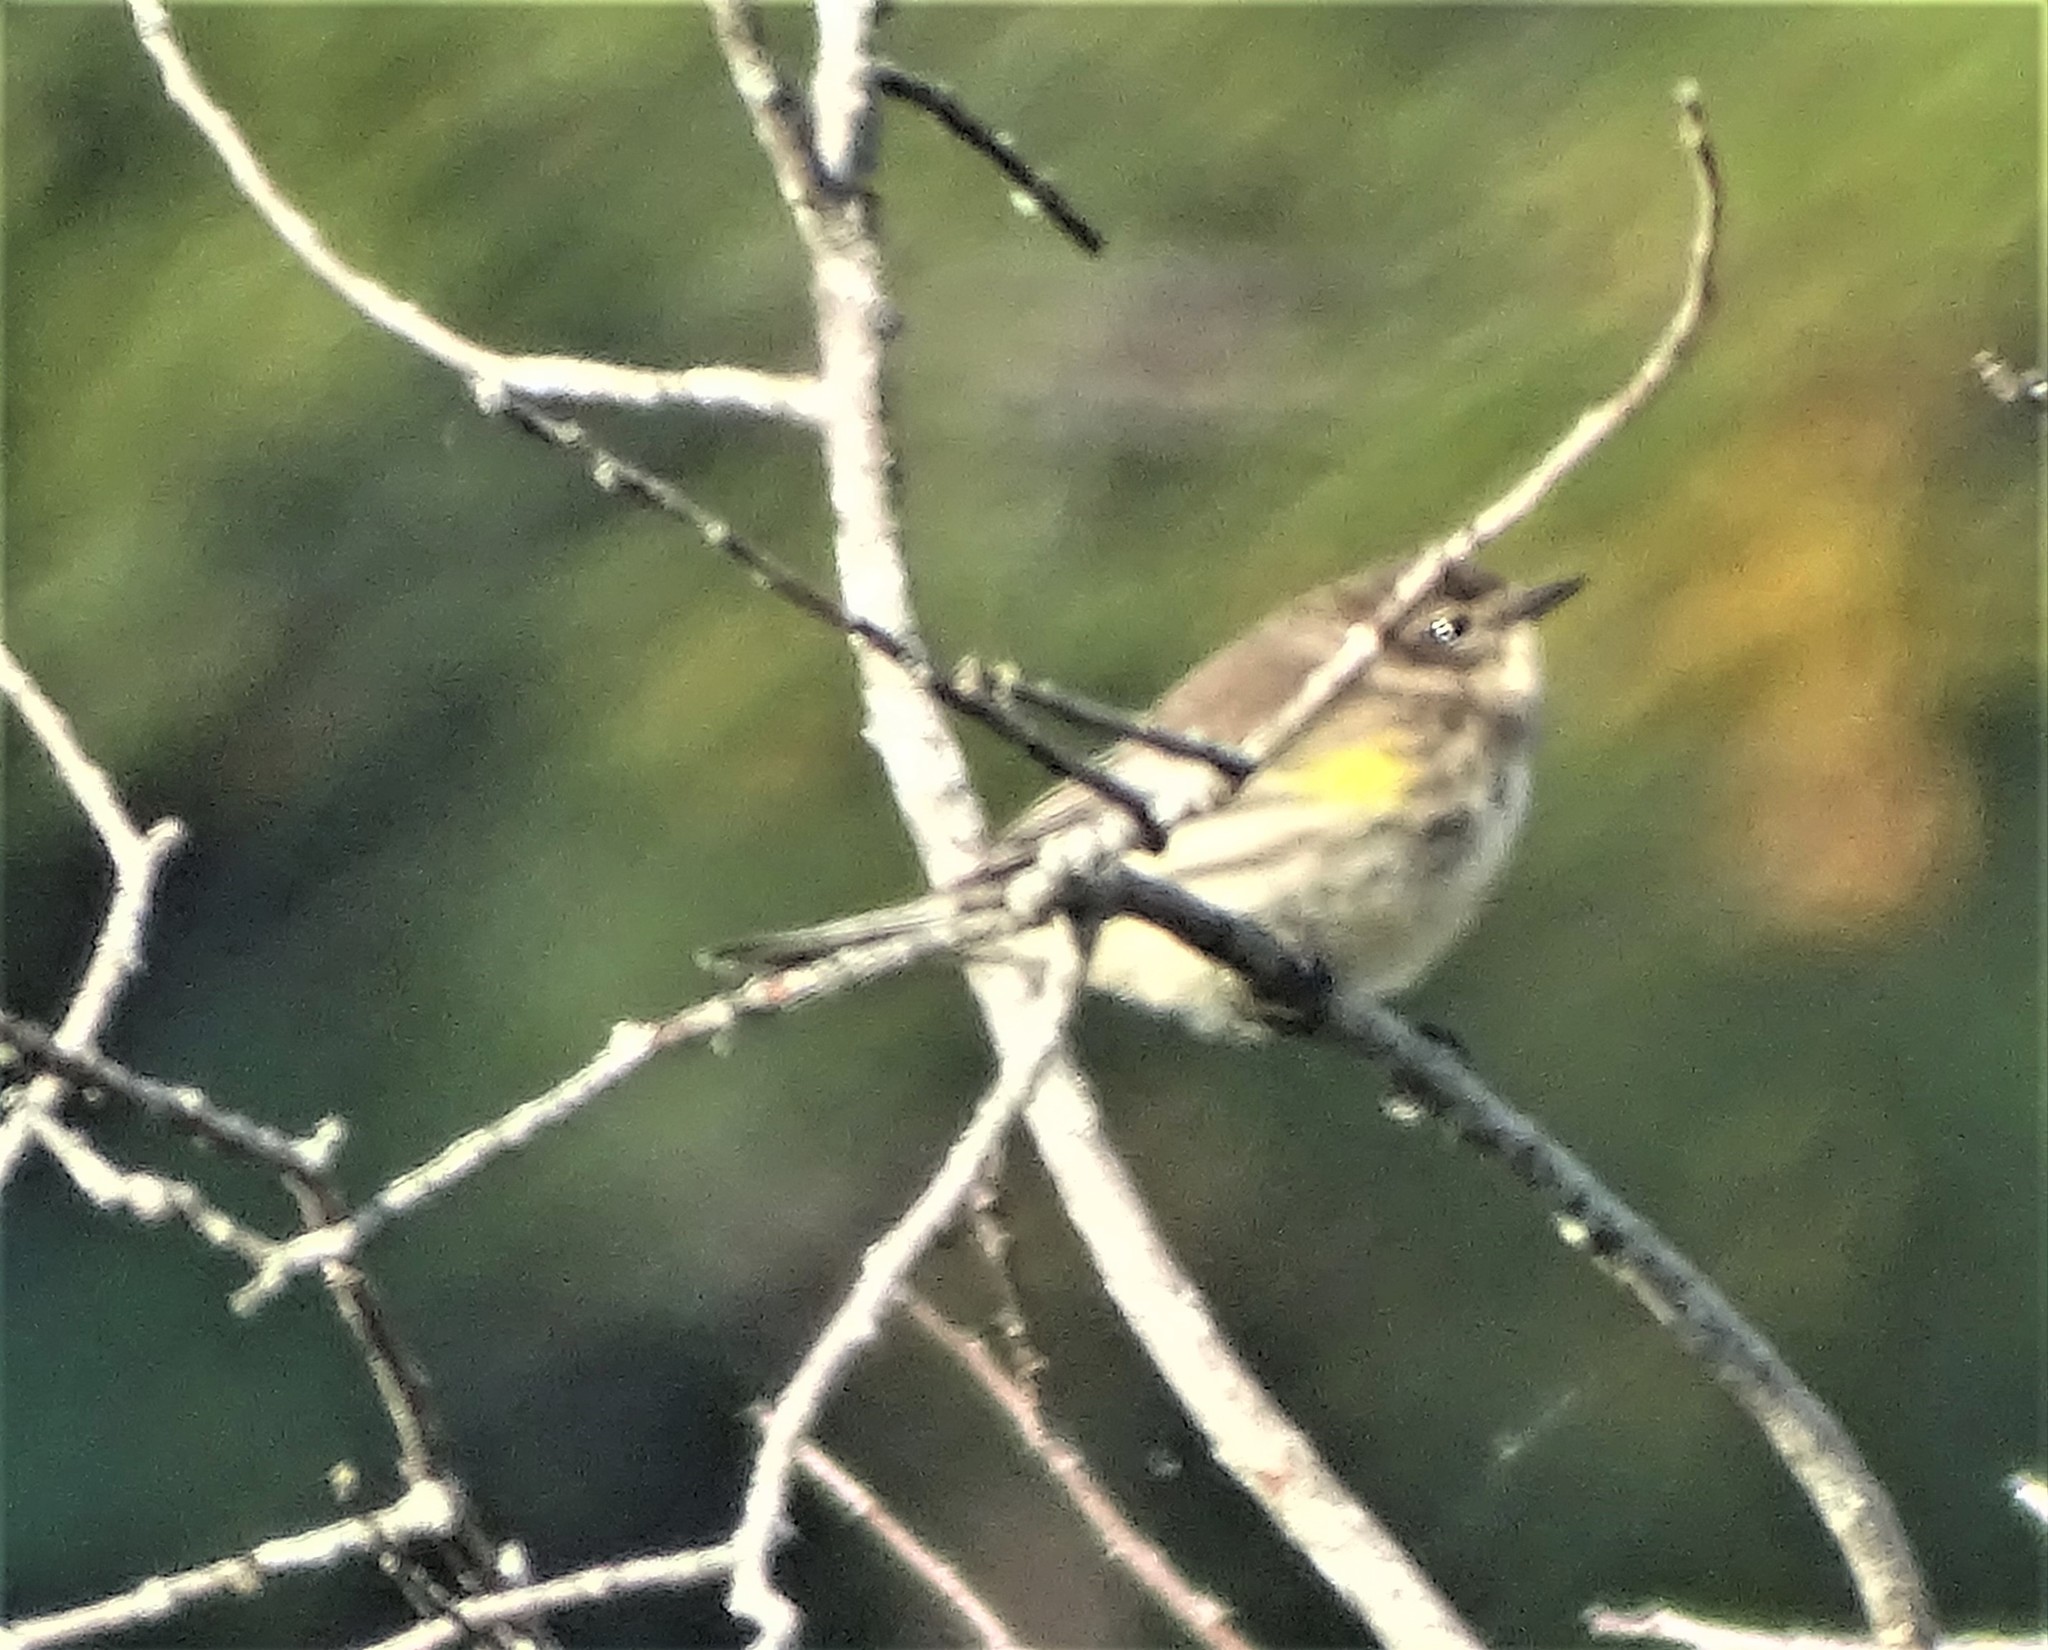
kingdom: Animalia
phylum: Chordata
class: Aves
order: Passeriformes
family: Parulidae
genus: Setophaga
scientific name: Setophaga coronata
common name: Myrtle warbler
